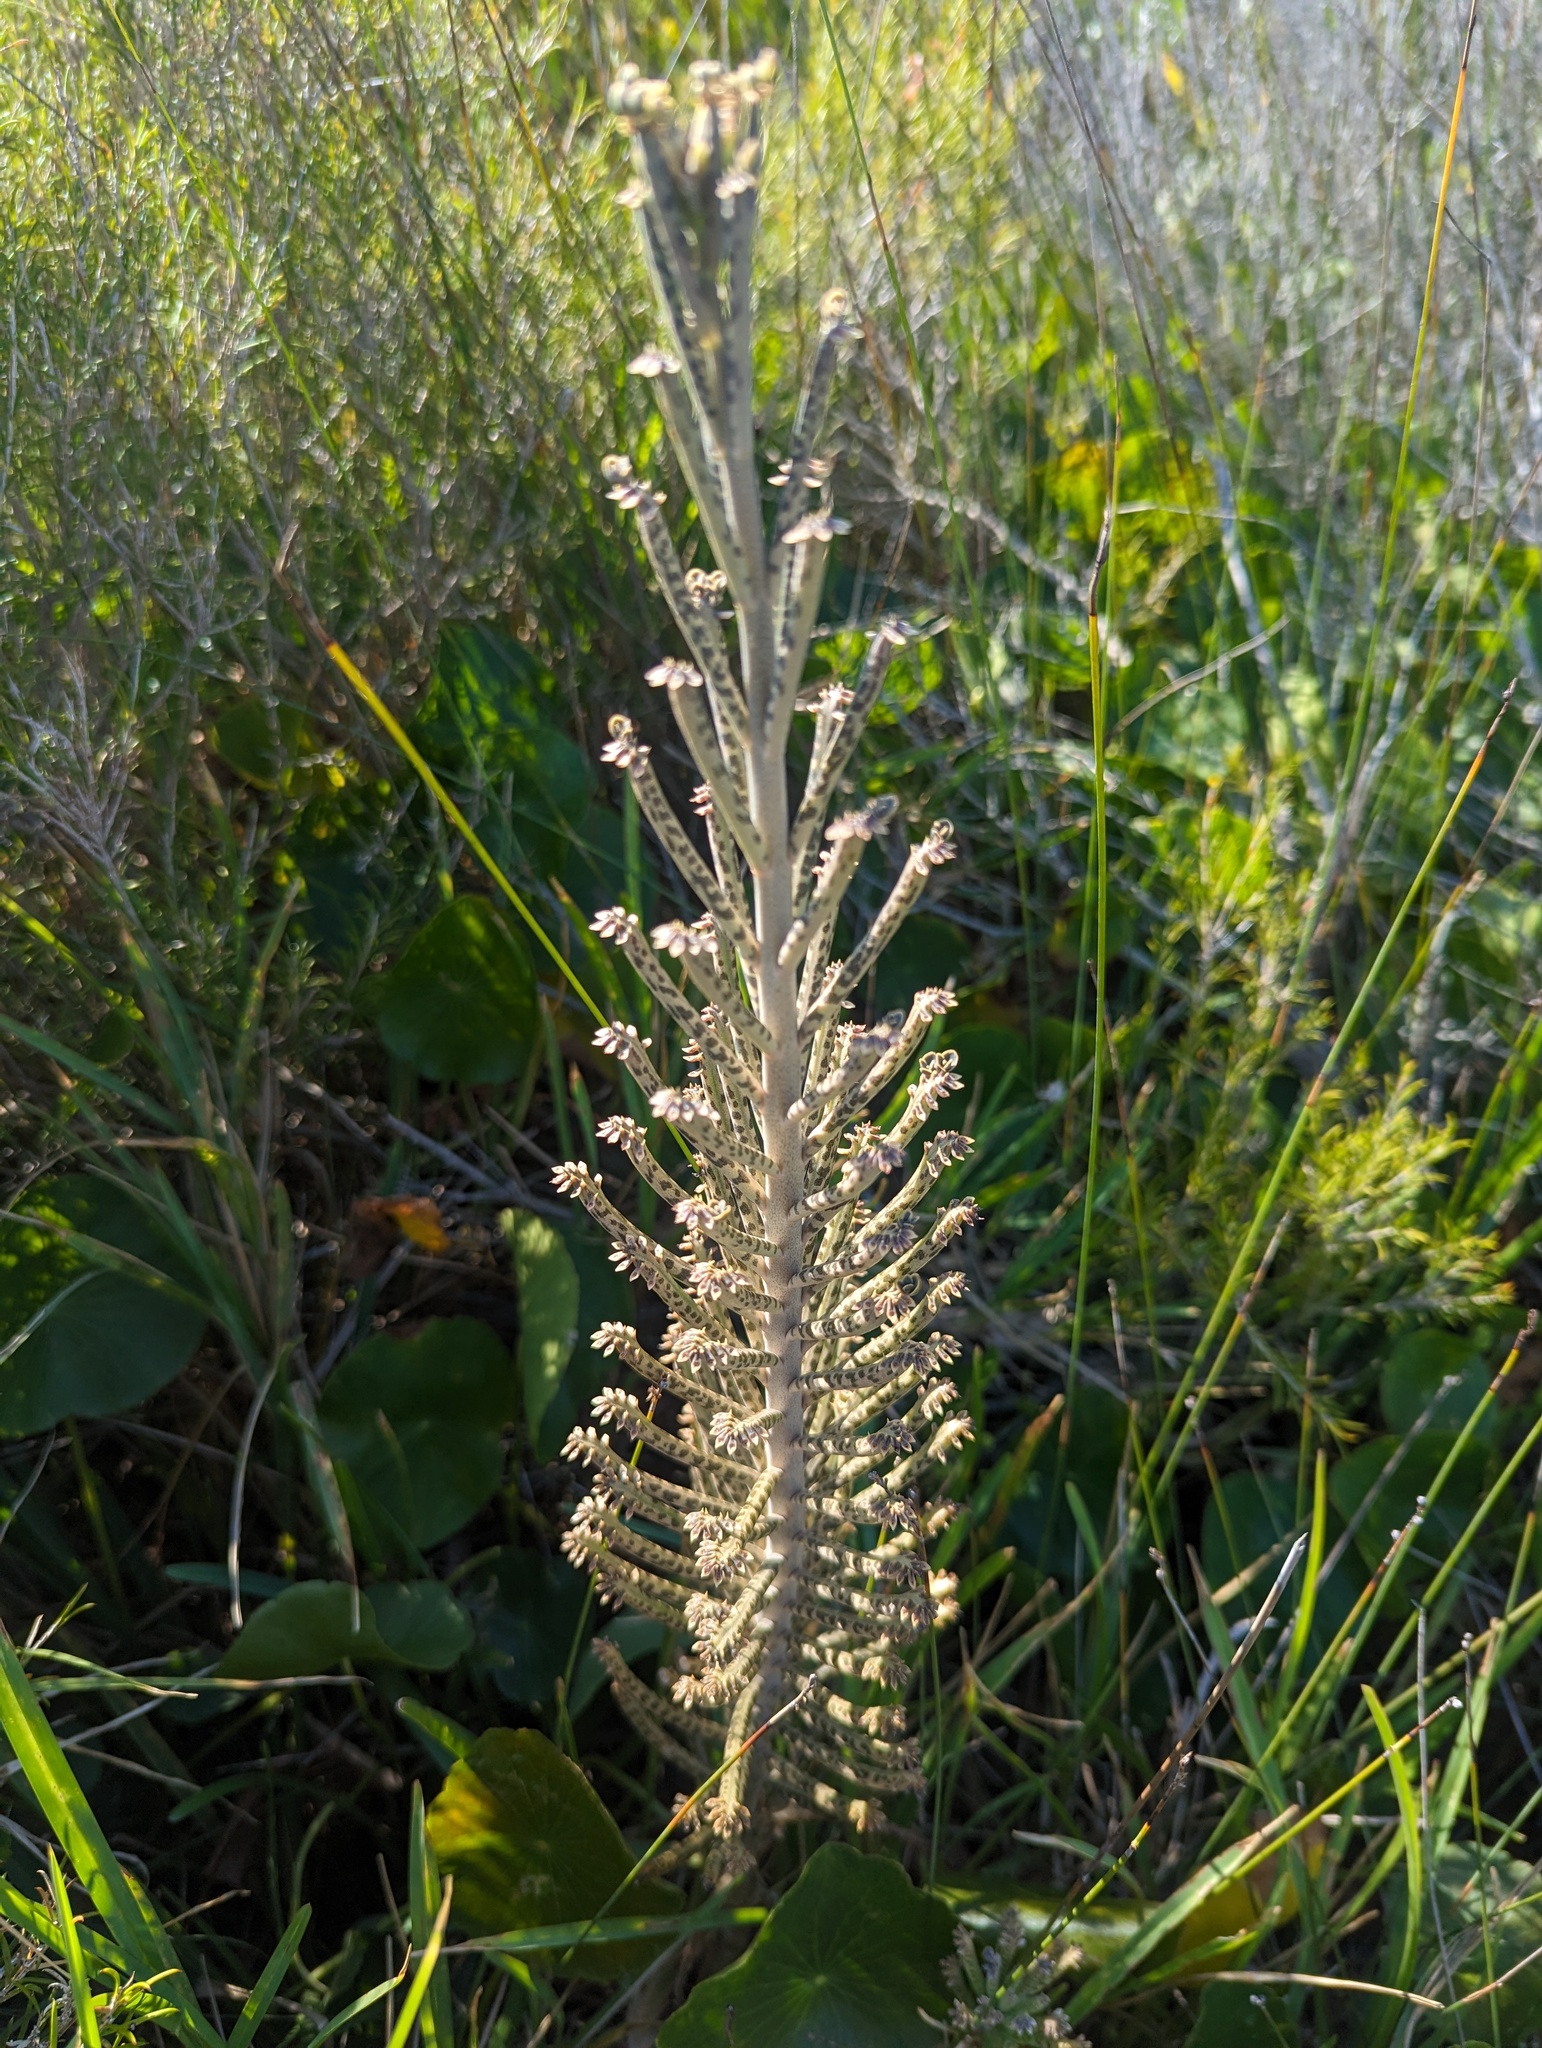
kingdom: Plantae
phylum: Tracheophyta
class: Magnoliopsida
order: Saxifragales
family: Crassulaceae
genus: Kalanchoe
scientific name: Kalanchoe delagoensis
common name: Chandelier plant
